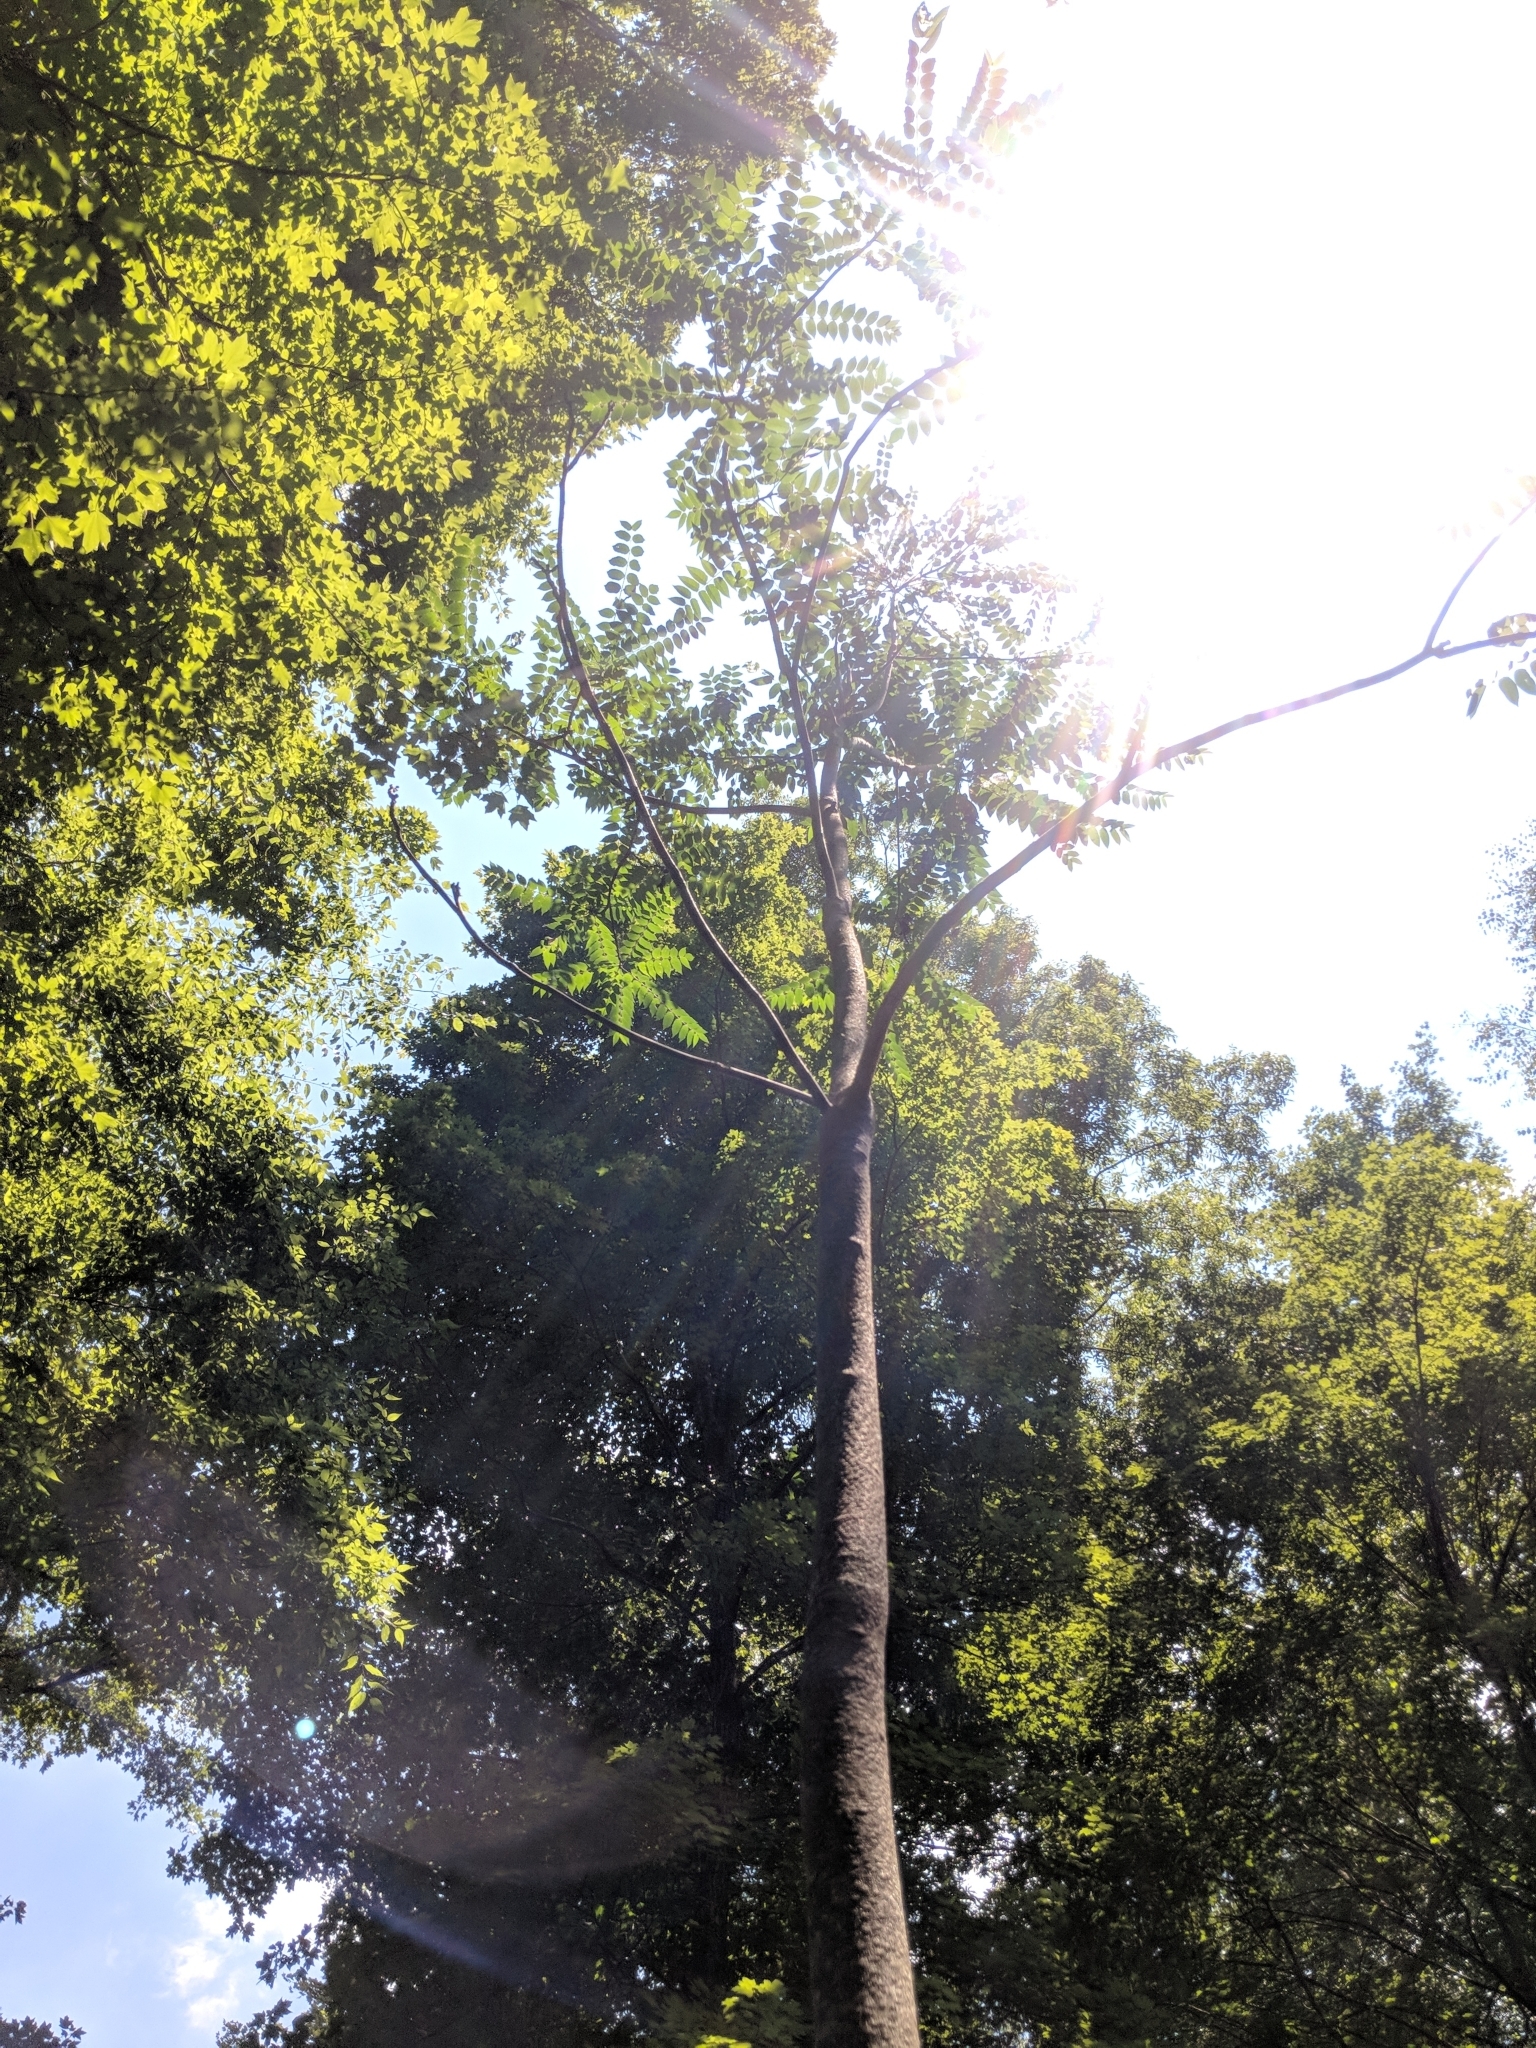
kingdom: Plantae
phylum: Tracheophyta
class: Magnoliopsida
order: Sapindales
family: Simaroubaceae
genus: Ailanthus
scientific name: Ailanthus altissima
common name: Tree-of-heaven
